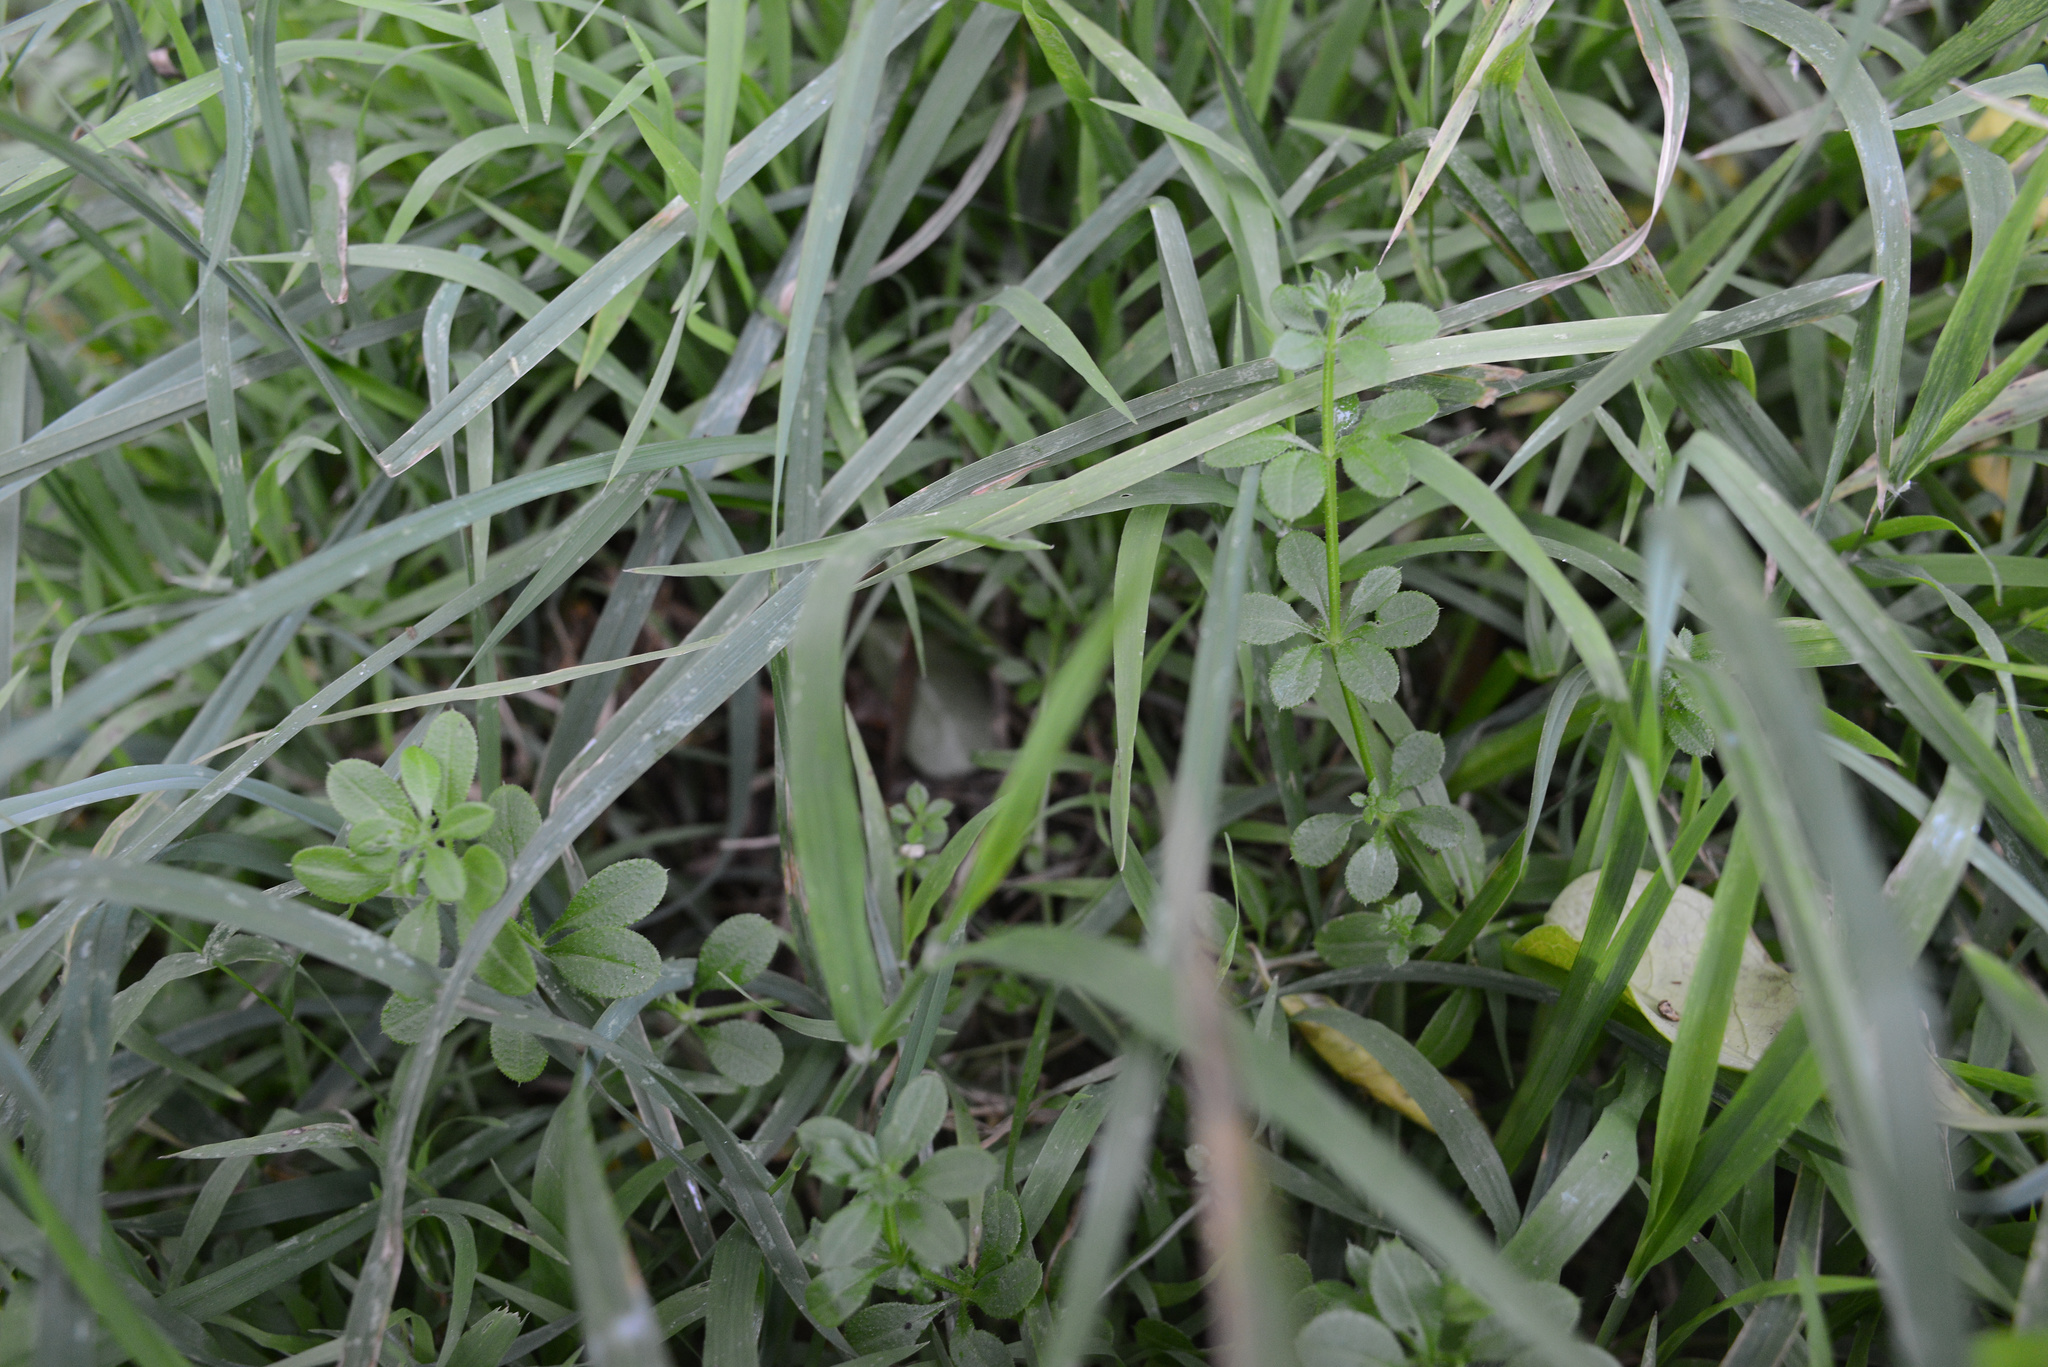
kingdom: Plantae
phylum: Tracheophyta
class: Magnoliopsida
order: Gentianales
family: Rubiaceae
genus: Galium
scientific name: Galium aparine
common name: Cleavers
